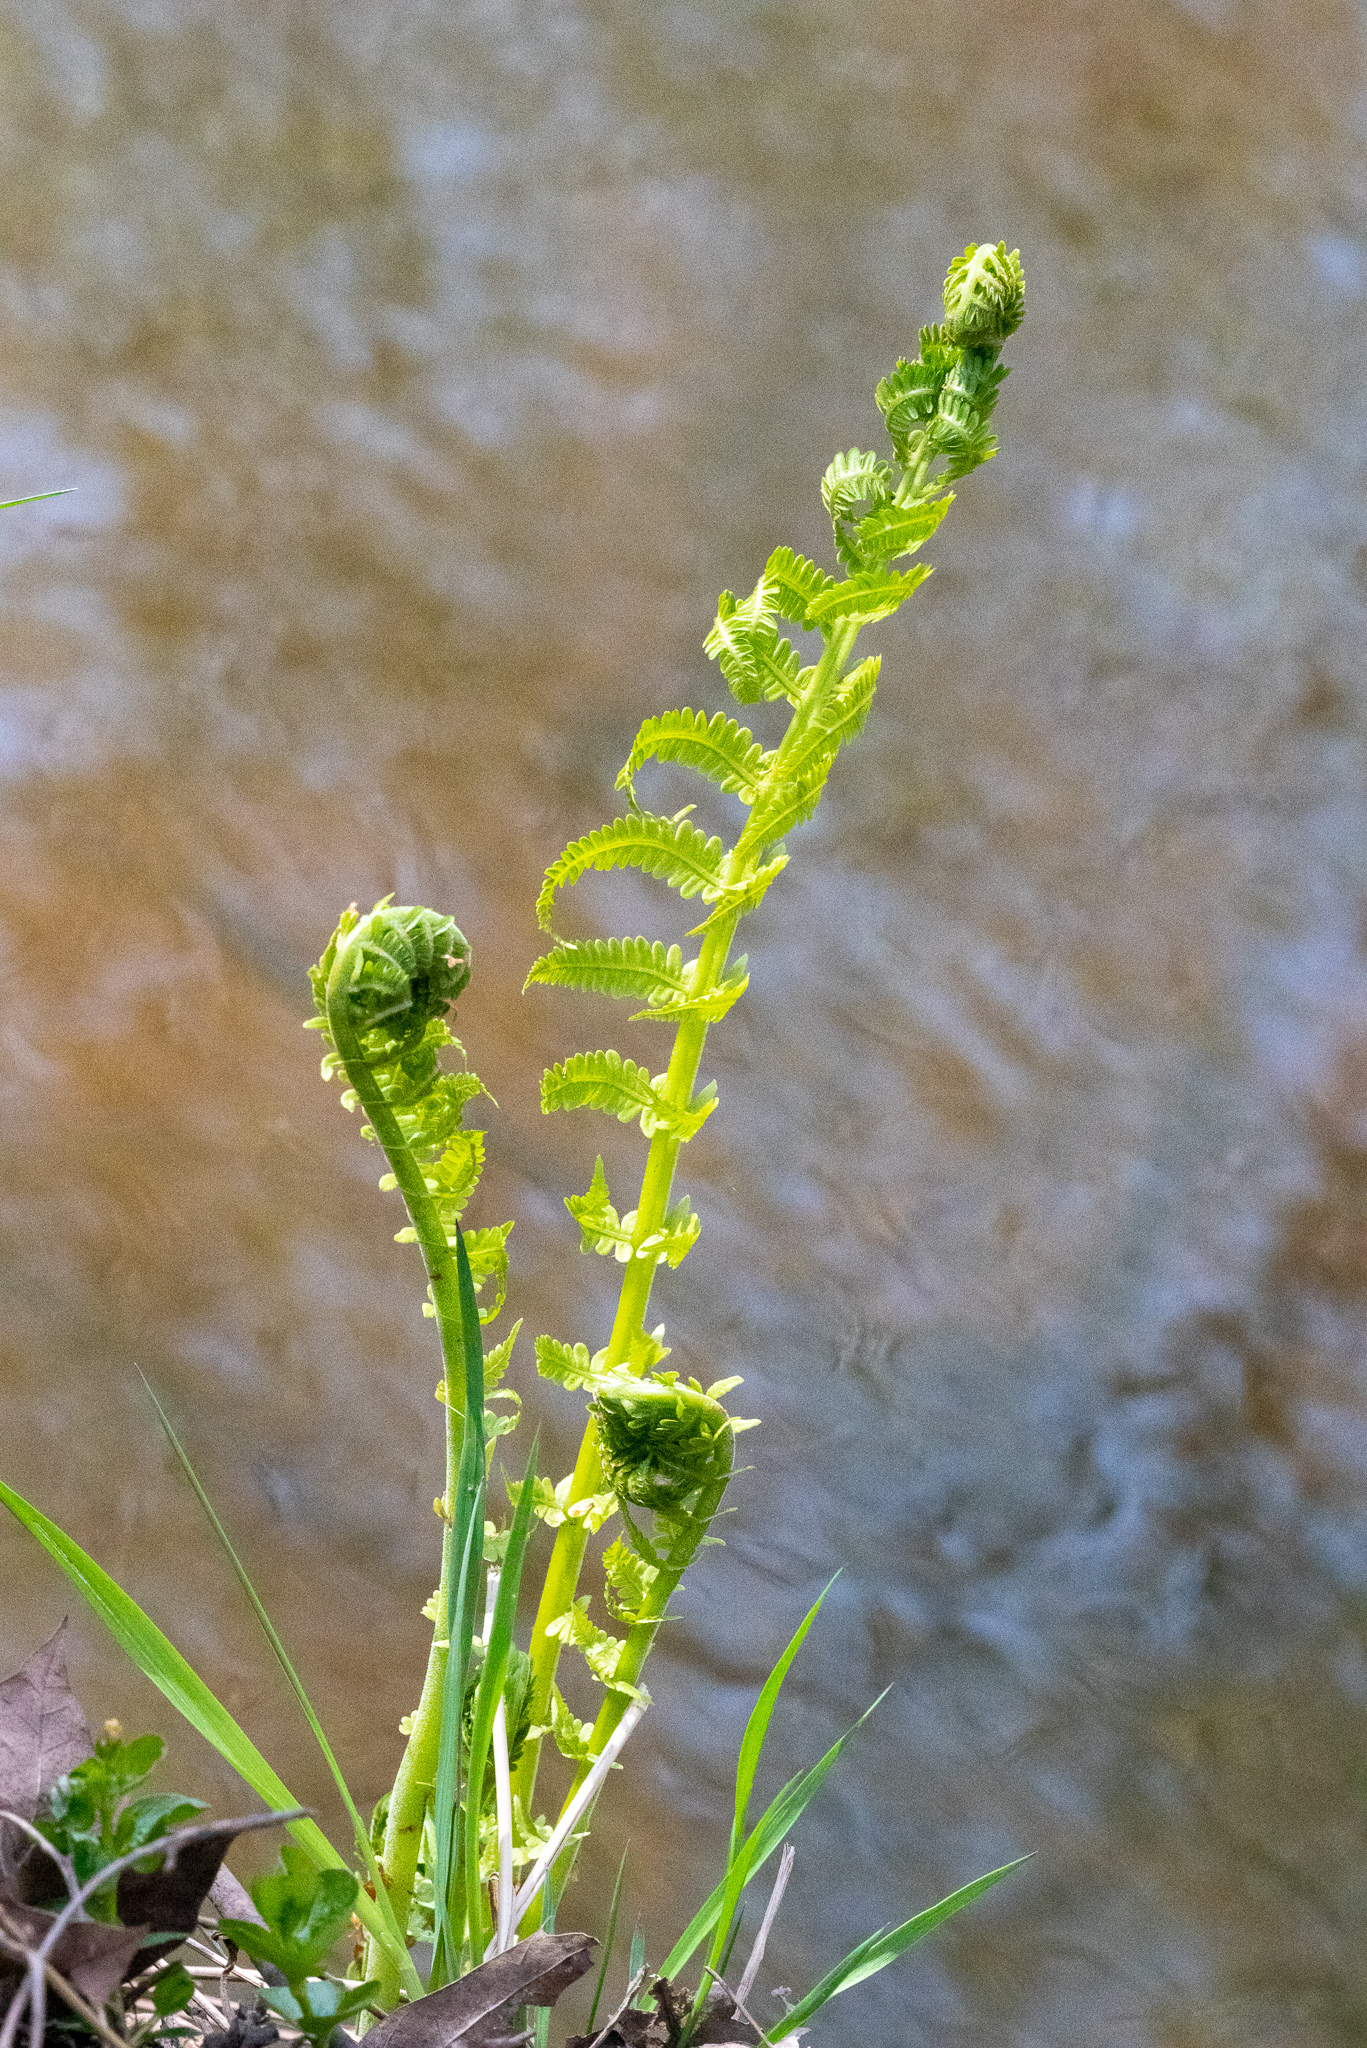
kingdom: Plantae
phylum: Tracheophyta
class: Polypodiopsida
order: Polypodiales
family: Onocleaceae
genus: Matteuccia
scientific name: Matteuccia struthiopteris
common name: Ostrich fern
